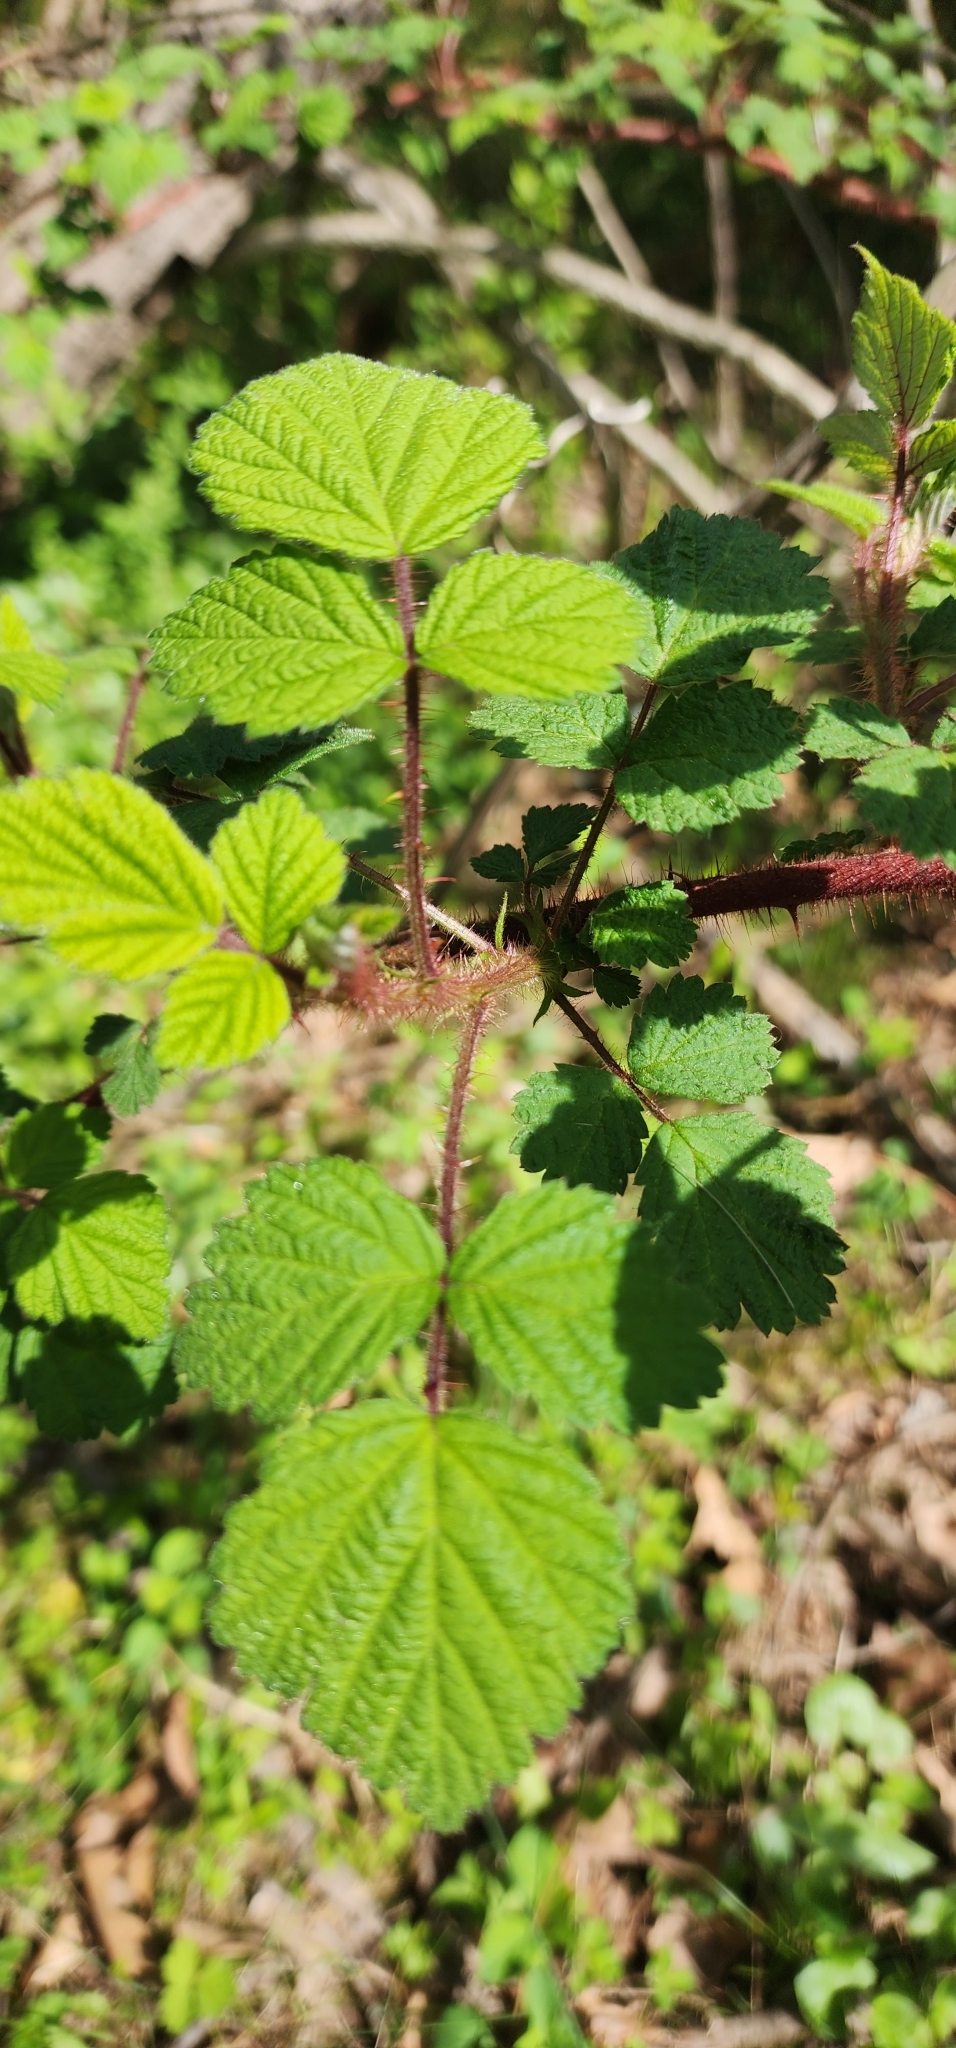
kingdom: Plantae
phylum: Tracheophyta
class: Magnoliopsida
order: Rosales
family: Rosaceae
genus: Rubus
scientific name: Rubus phoenicolasius
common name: Japanese wineberry
